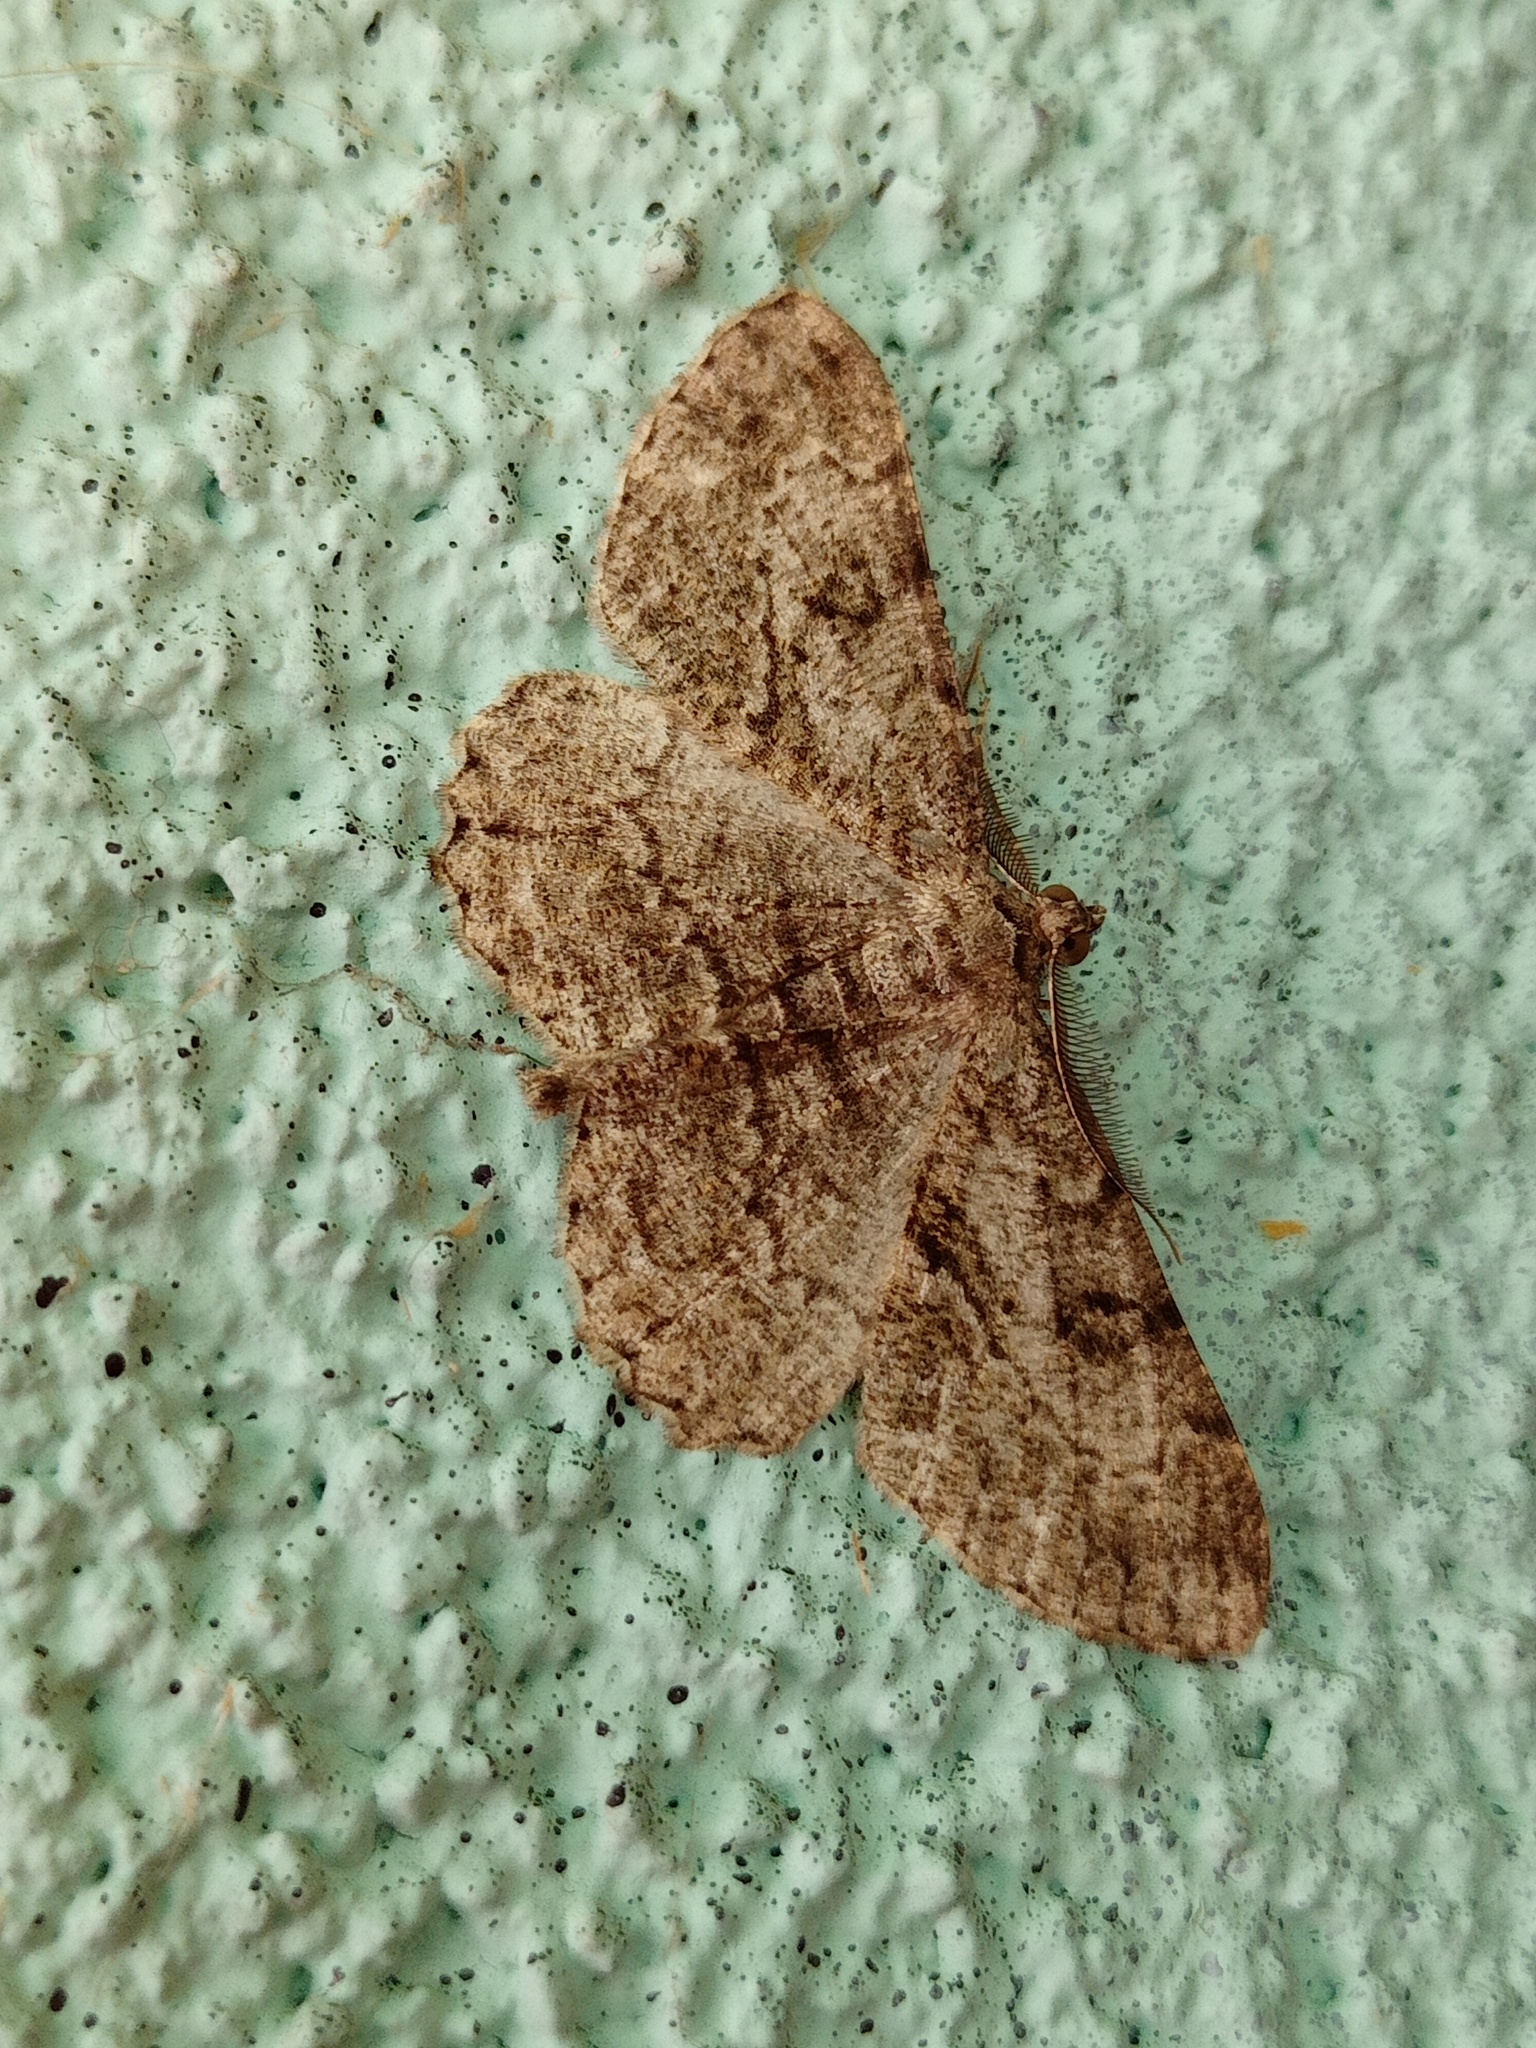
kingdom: Animalia
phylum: Arthropoda
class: Insecta
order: Lepidoptera
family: Geometridae
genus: Peribatodes
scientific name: Peribatodes rhomboidaria
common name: Willow beauty
